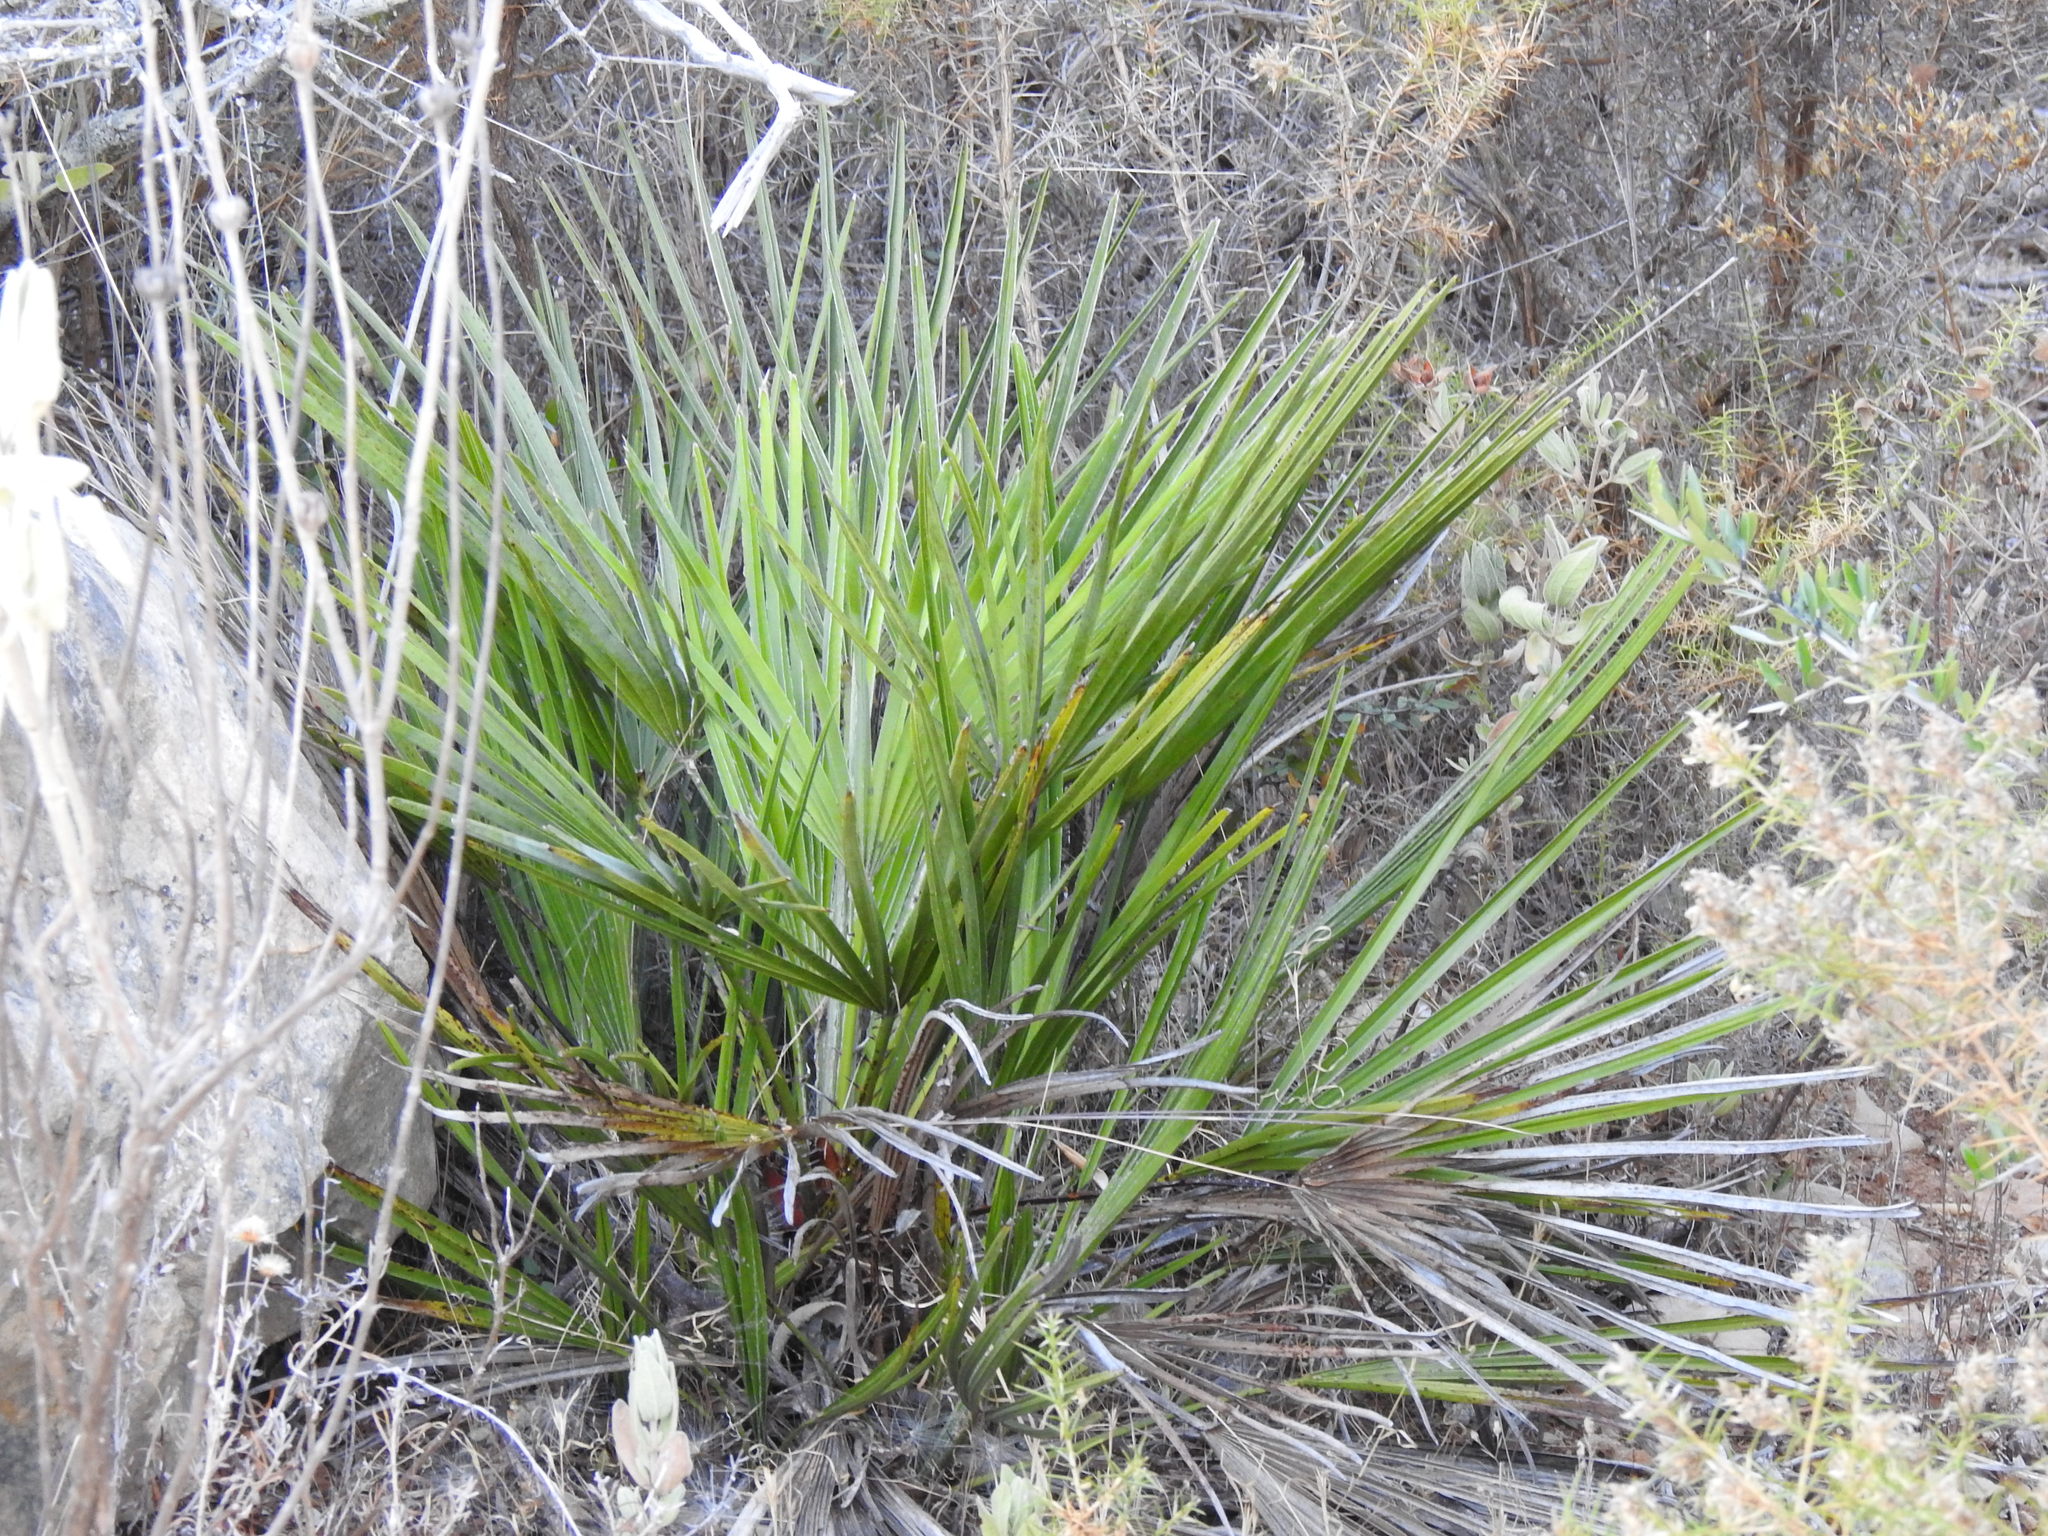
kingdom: Plantae
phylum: Tracheophyta
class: Liliopsida
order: Arecales
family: Arecaceae
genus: Chamaerops
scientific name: Chamaerops humilis
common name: Dwarf fan palm
